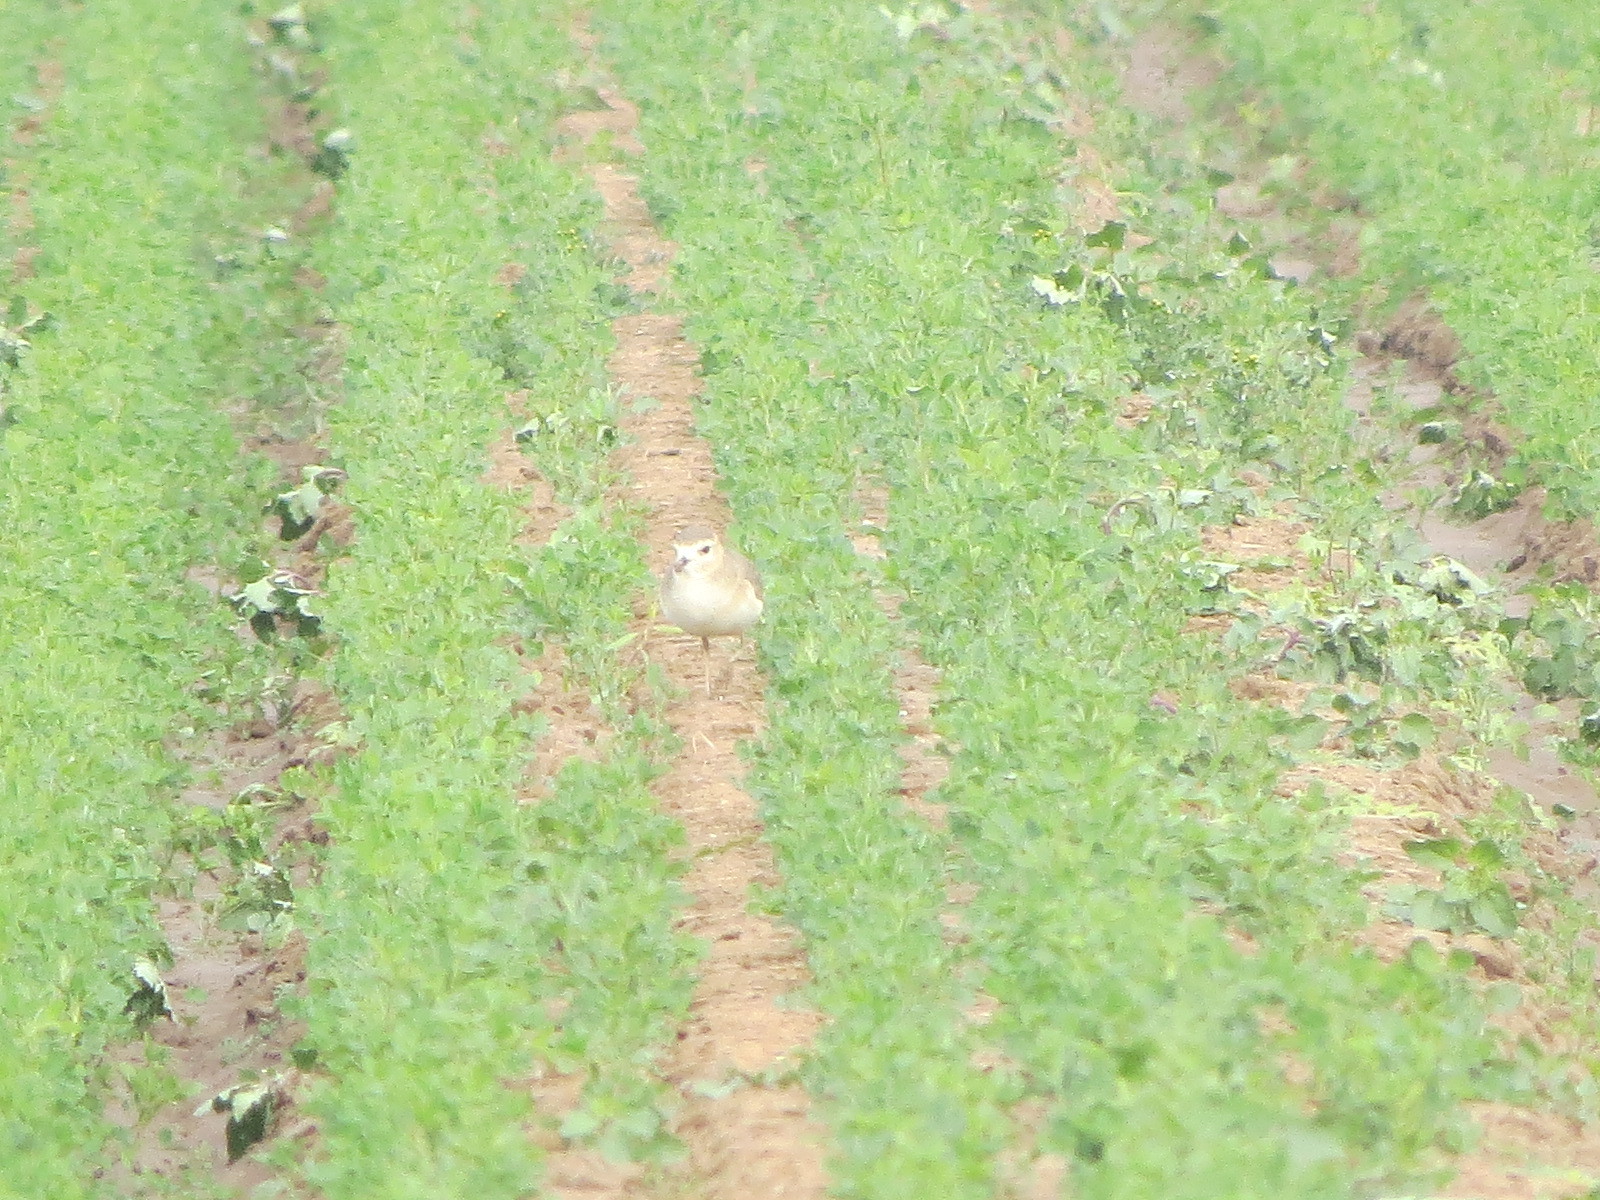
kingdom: Animalia
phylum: Chordata
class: Aves
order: Charadriiformes
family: Charadriidae
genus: Anarhynchus
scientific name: Anarhynchus
